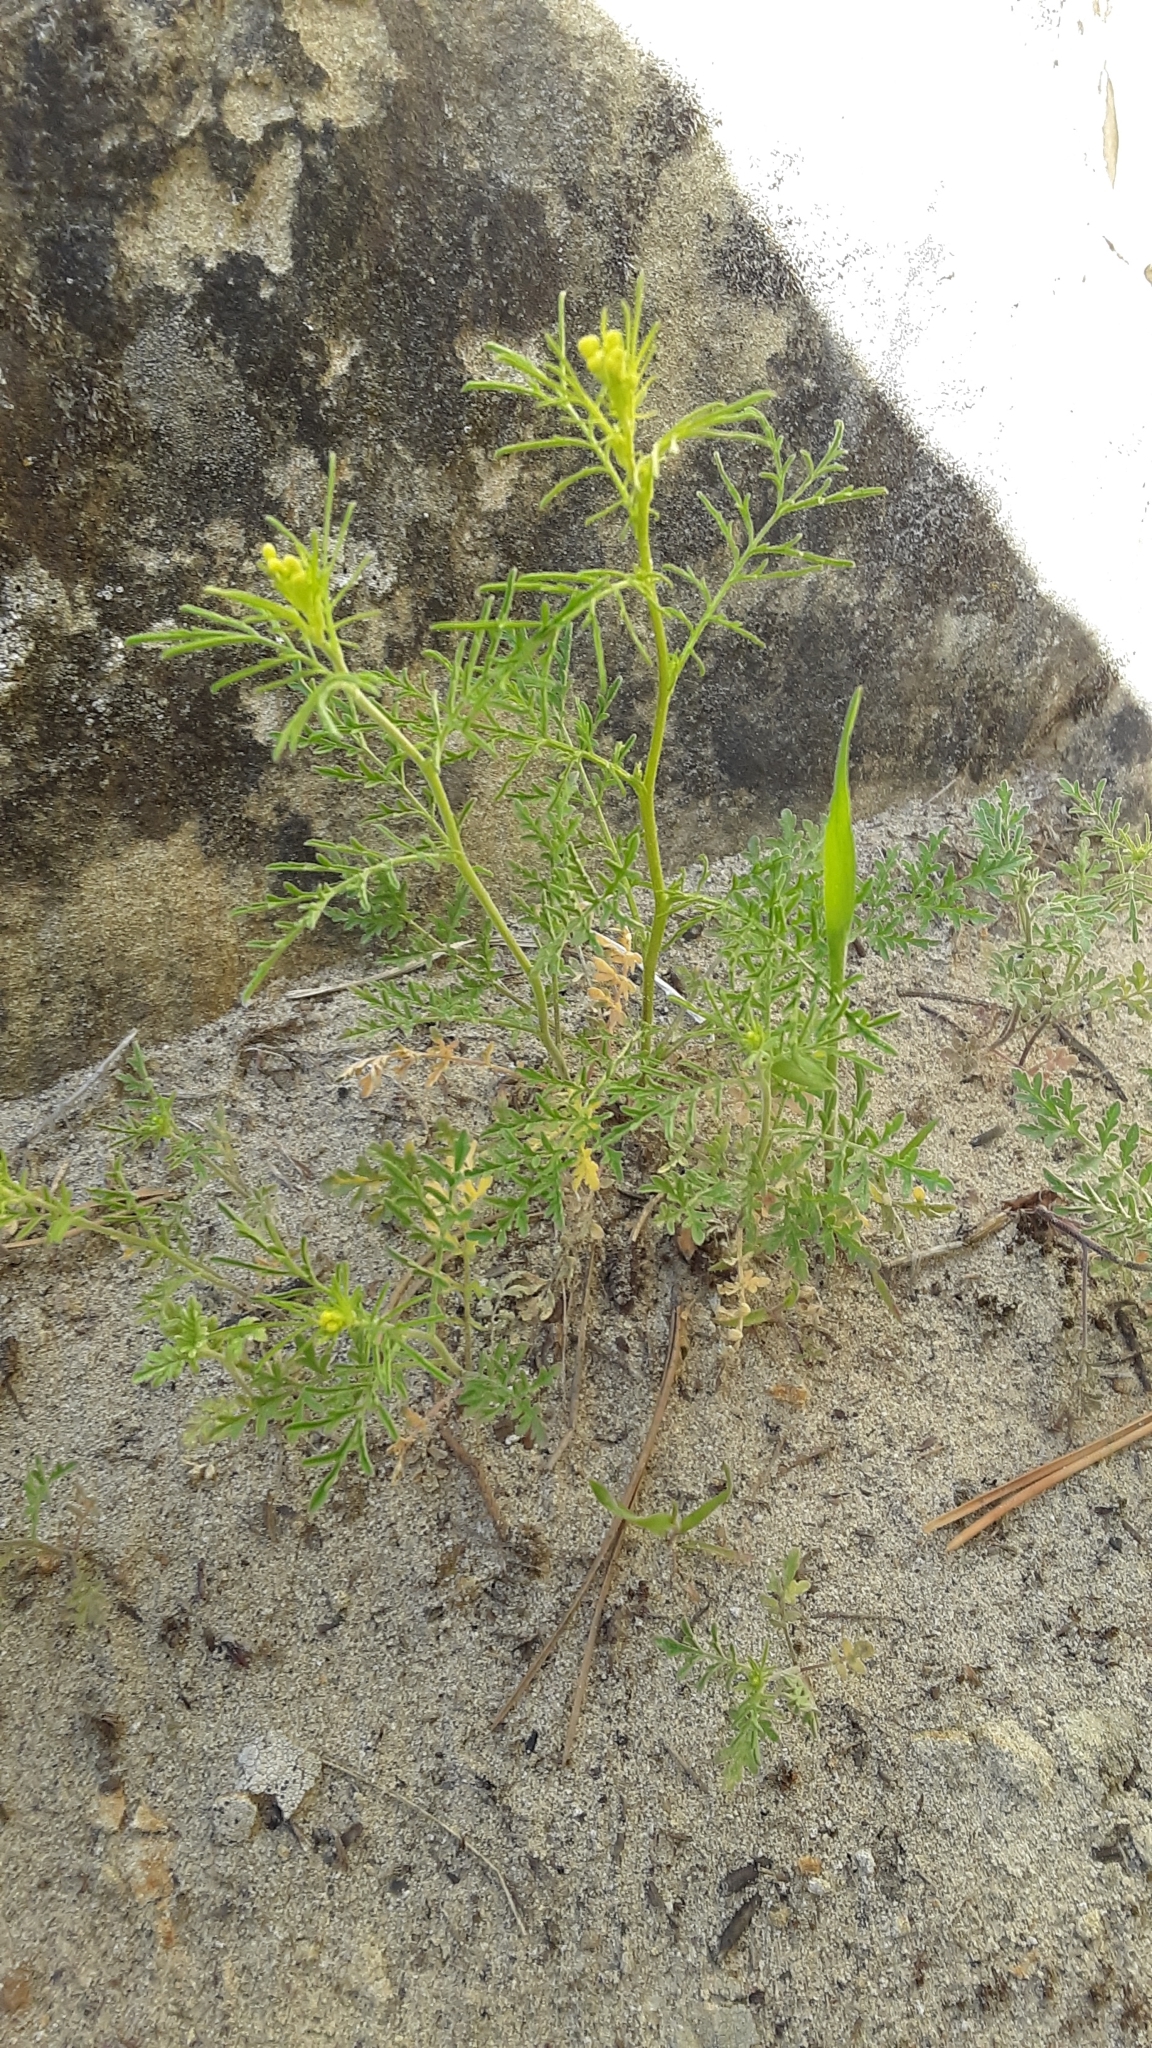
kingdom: Plantae
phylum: Tracheophyta
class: Magnoliopsida
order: Brassicales
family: Brassicaceae
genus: Descurainia
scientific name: Descurainia sophia
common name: Flixweed
